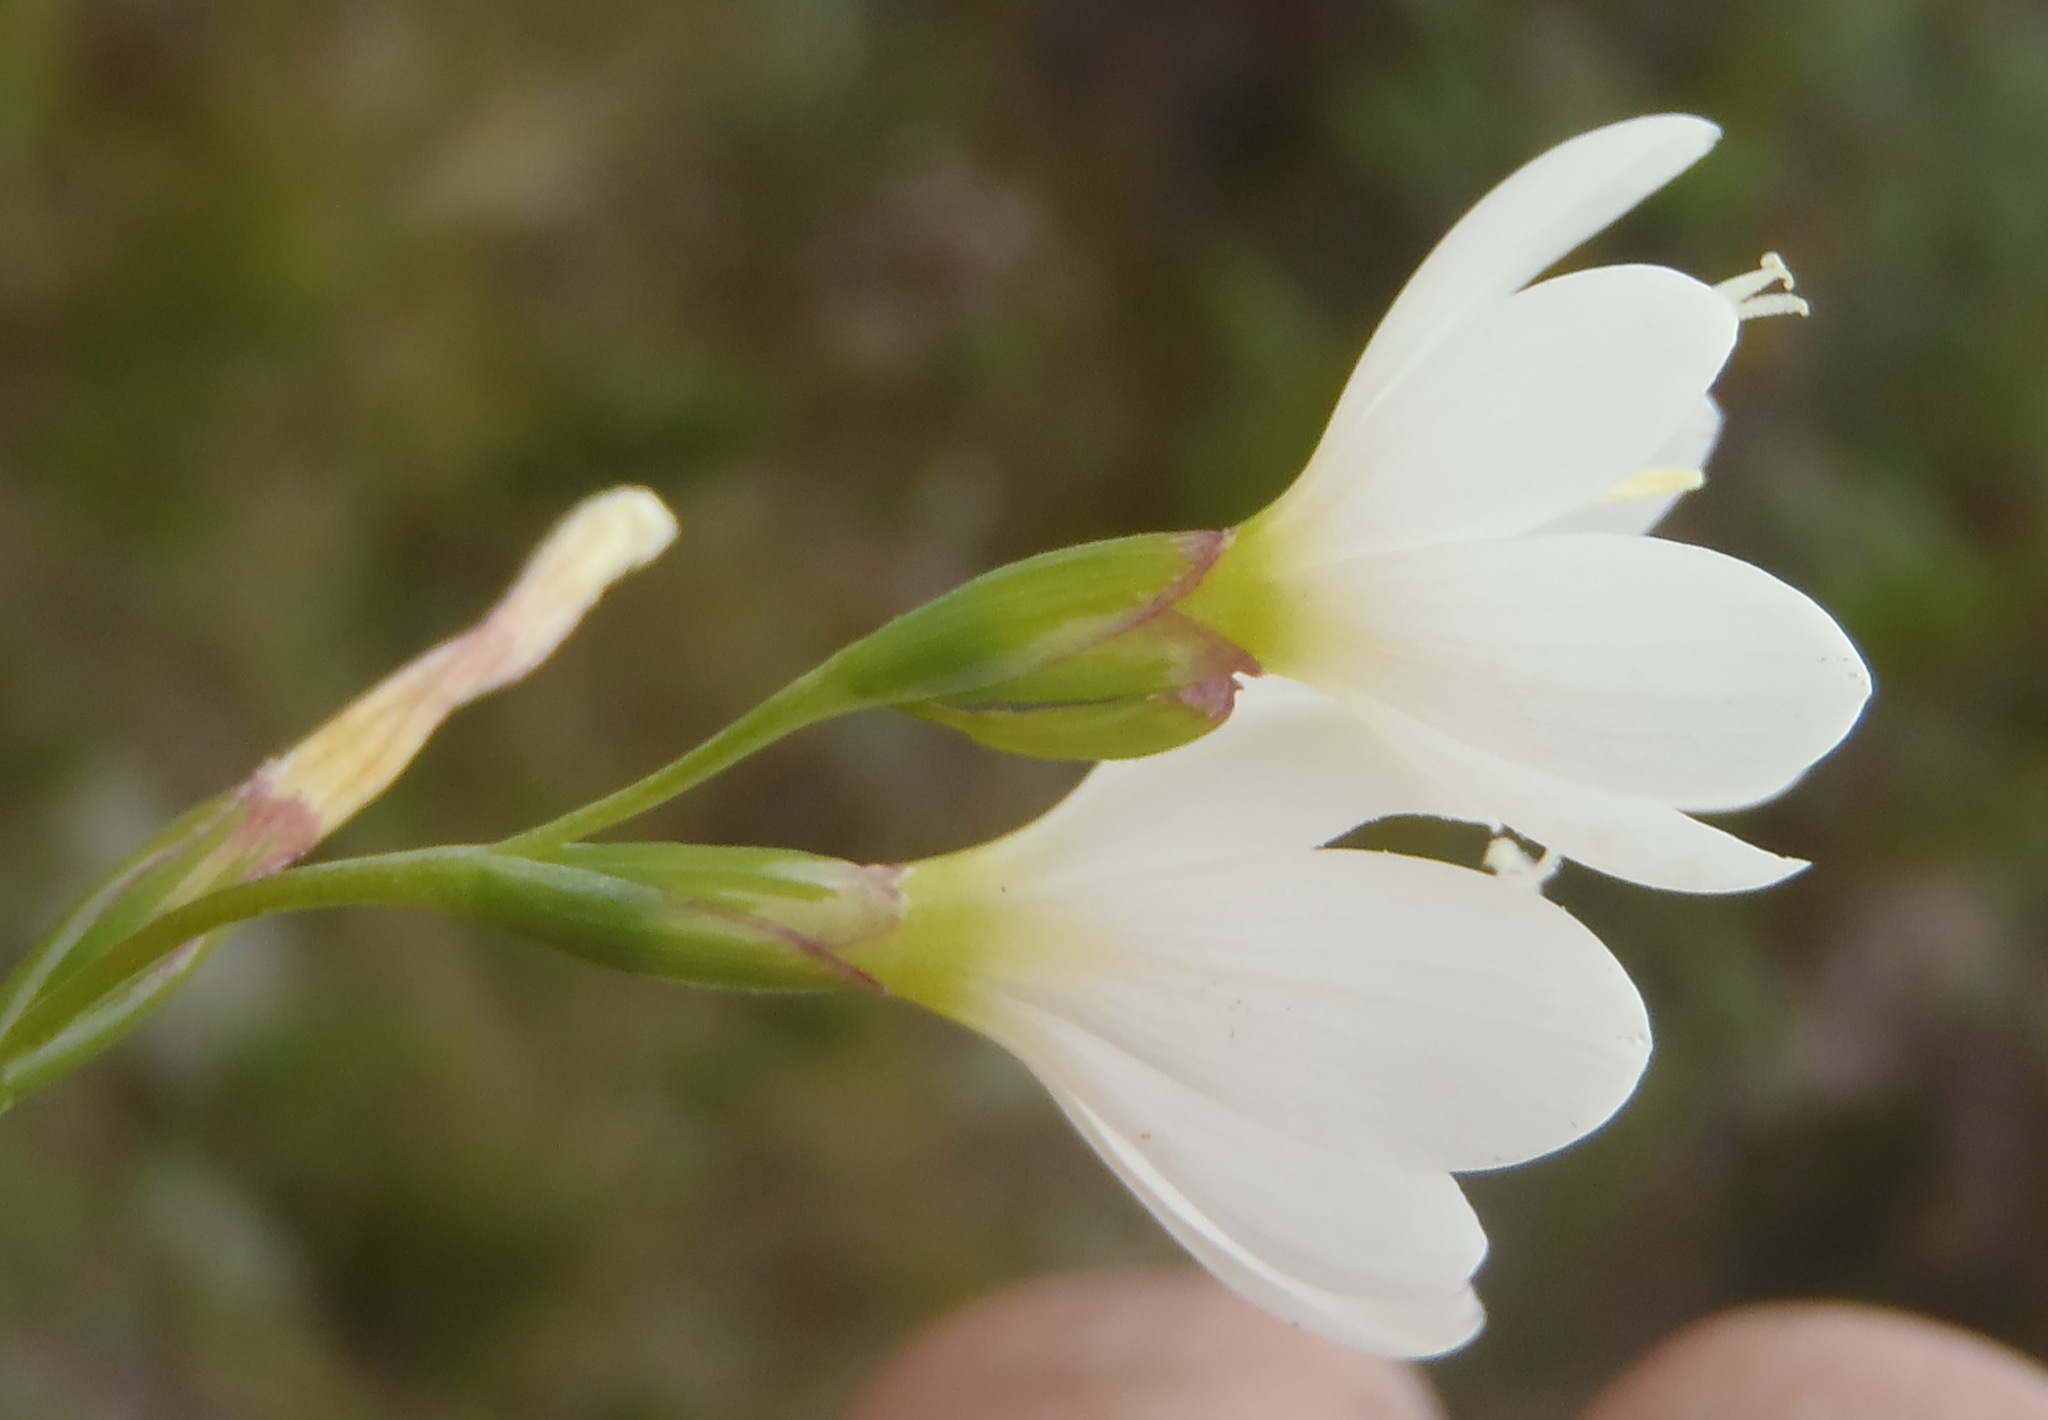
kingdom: Plantae
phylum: Tracheophyta
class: Liliopsida
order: Asparagales
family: Iridaceae
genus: Geissorhiza
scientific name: Geissorhiza inconspicua
